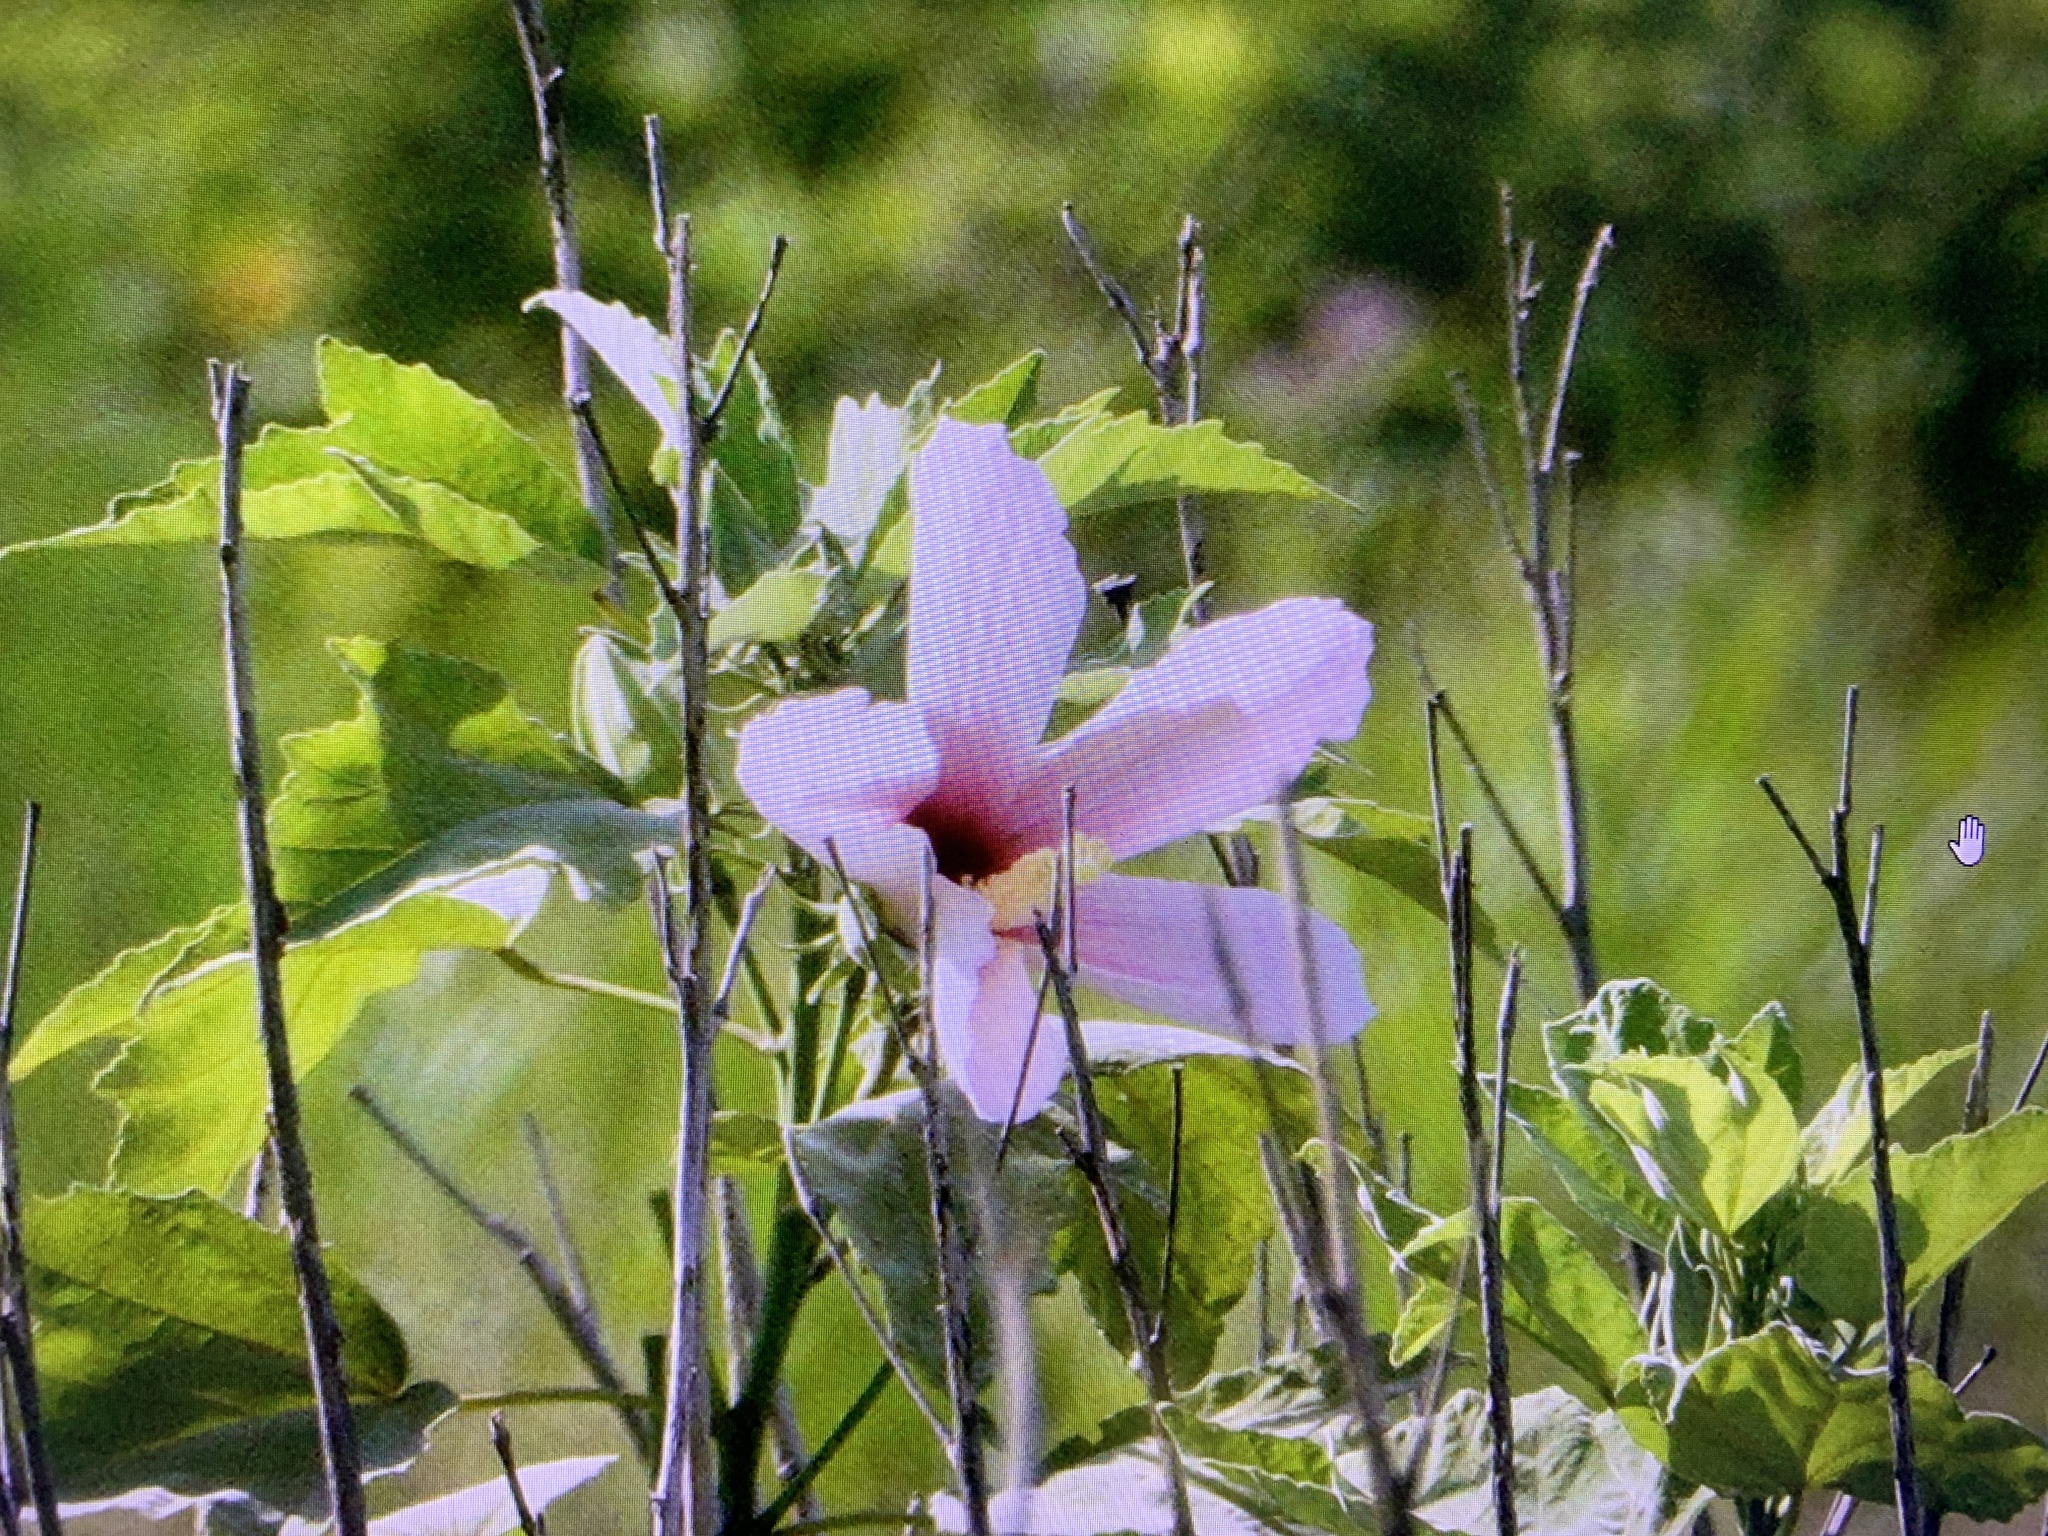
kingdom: Plantae
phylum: Tracheophyta
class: Magnoliopsida
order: Malvales
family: Malvaceae
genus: Hibiscus
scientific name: Hibiscus grandiflorus
